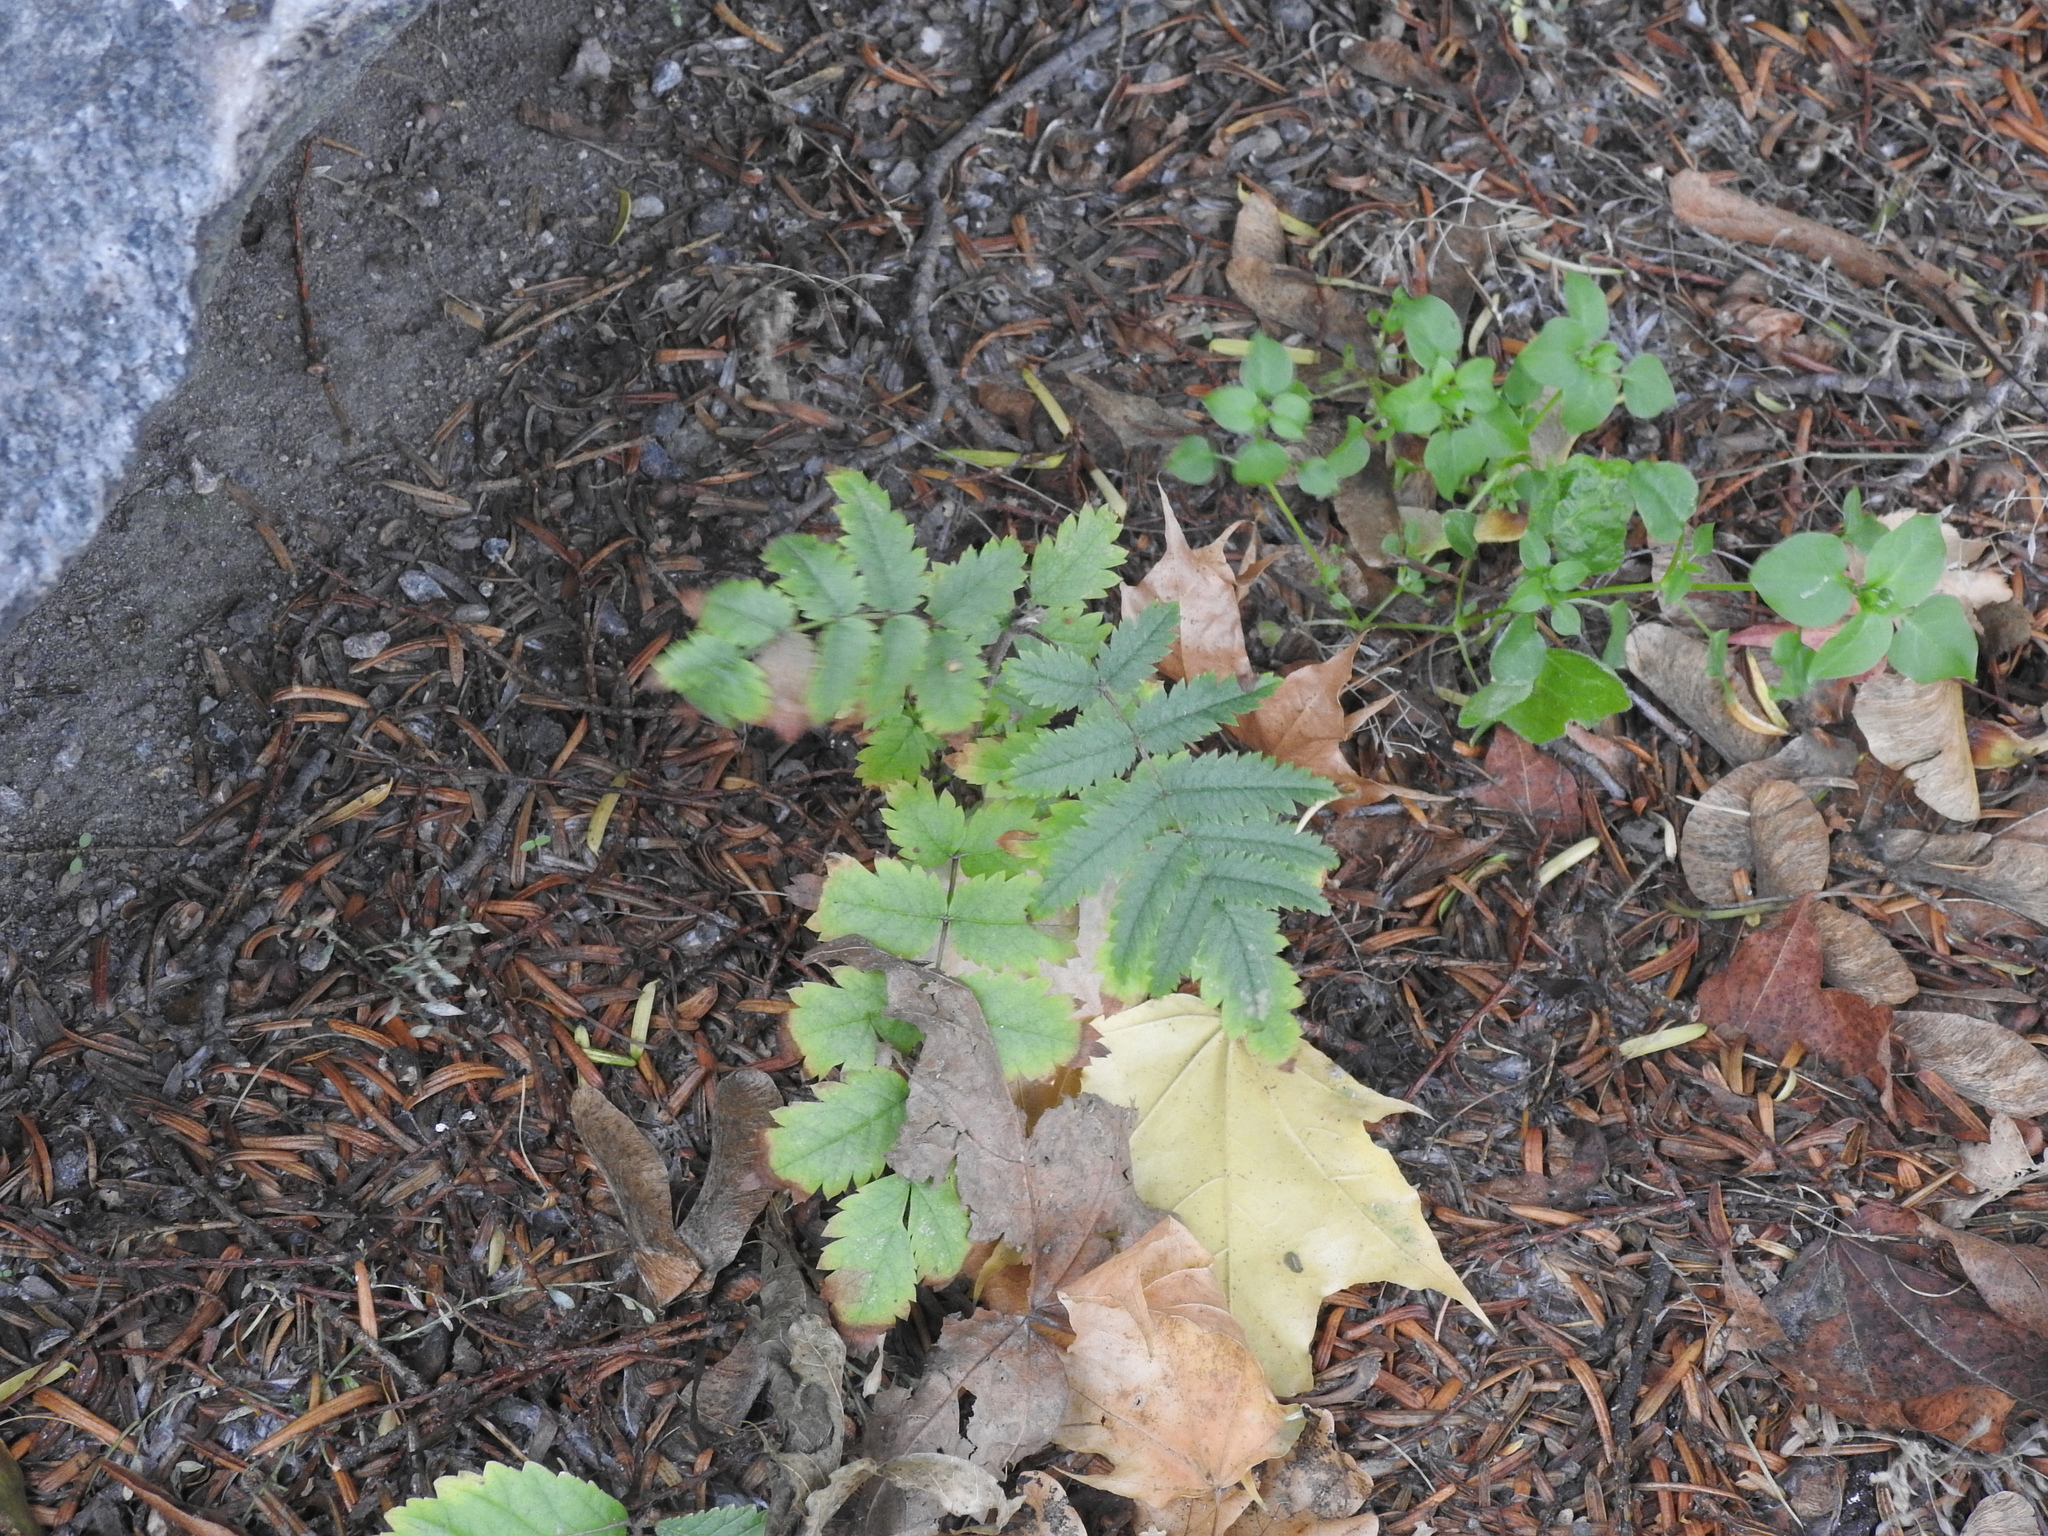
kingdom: Plantae
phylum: Tracheophyta
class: Magnoliopsida
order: Rosales
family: Rosaceae
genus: Sorbus
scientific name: Sorbus aucuparia
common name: Rowan
